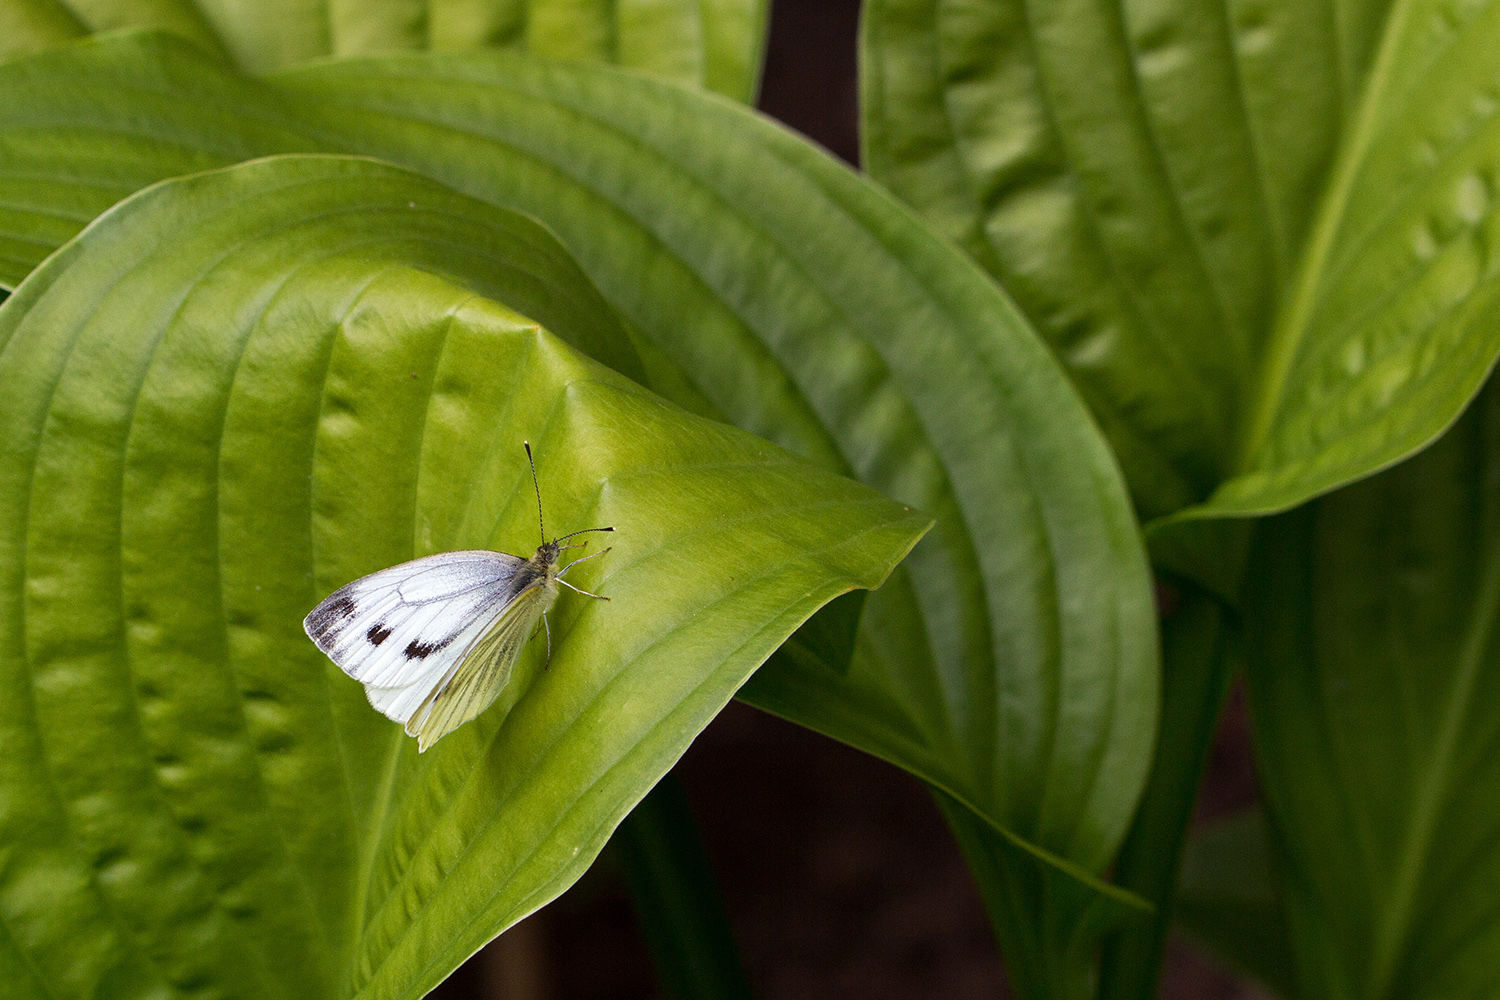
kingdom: Animalia
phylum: Arthropoda
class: Insecta
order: Lepidoptera
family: Pieridae
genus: Pieris
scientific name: Pieris napi
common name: Green-veined white
